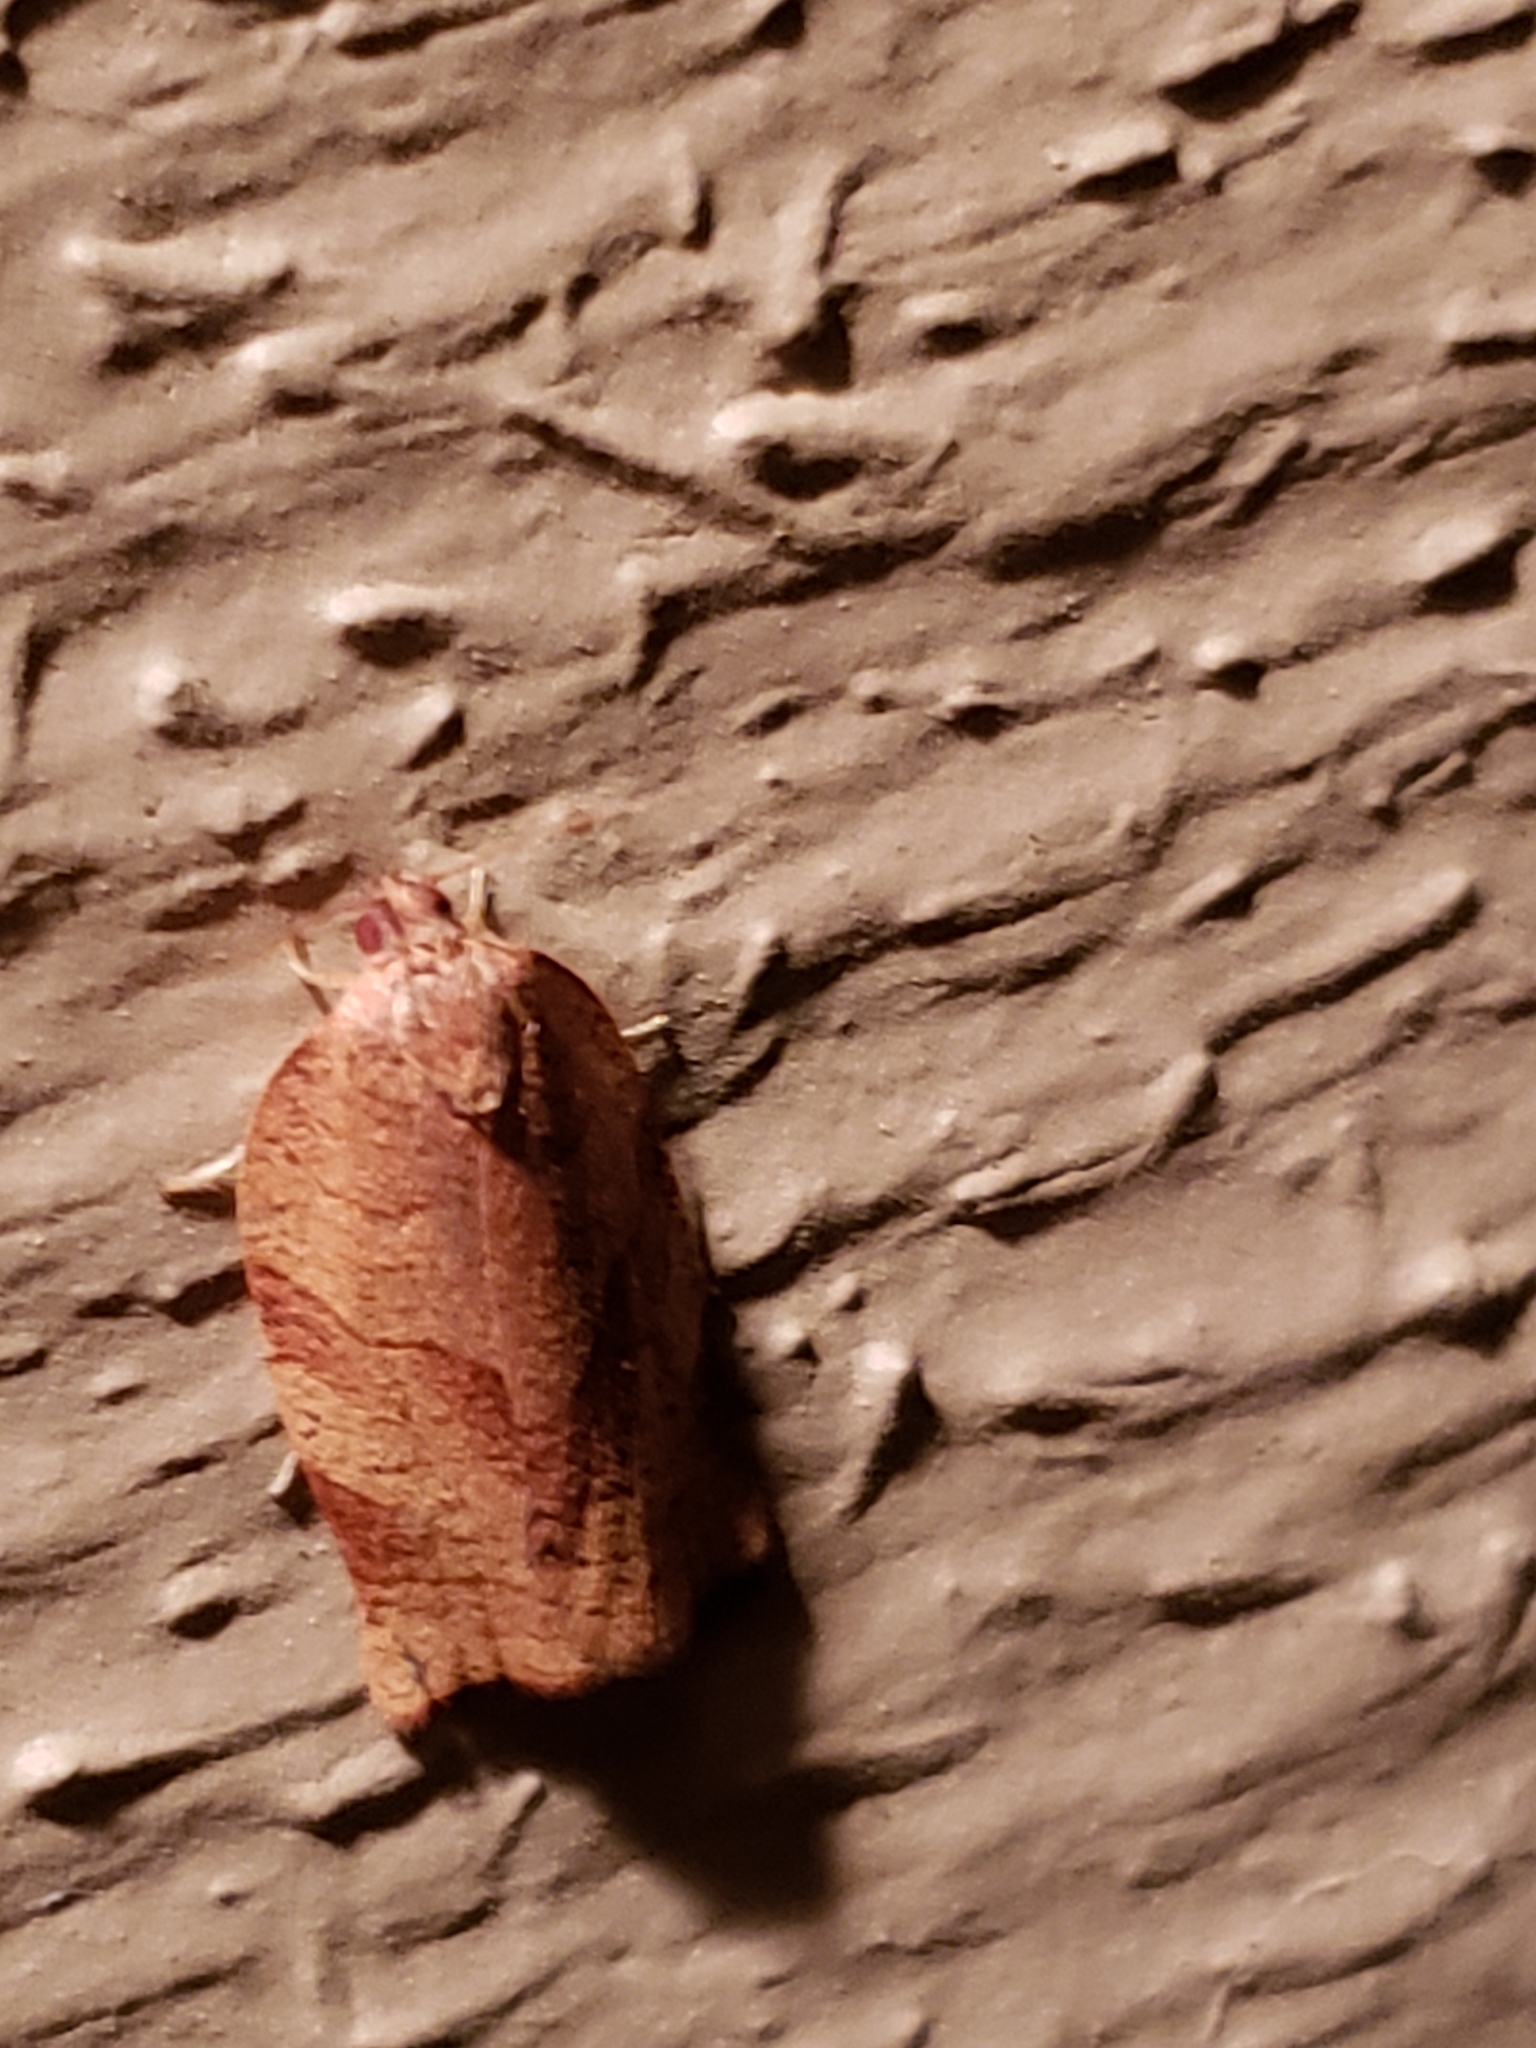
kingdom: Animalia
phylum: Arthropoda
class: Insecta
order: Lepidoptera
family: Tortricidae
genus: Choristoneura
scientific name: Choristoneura rosaceana
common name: Oblique-banded leafroller moth
